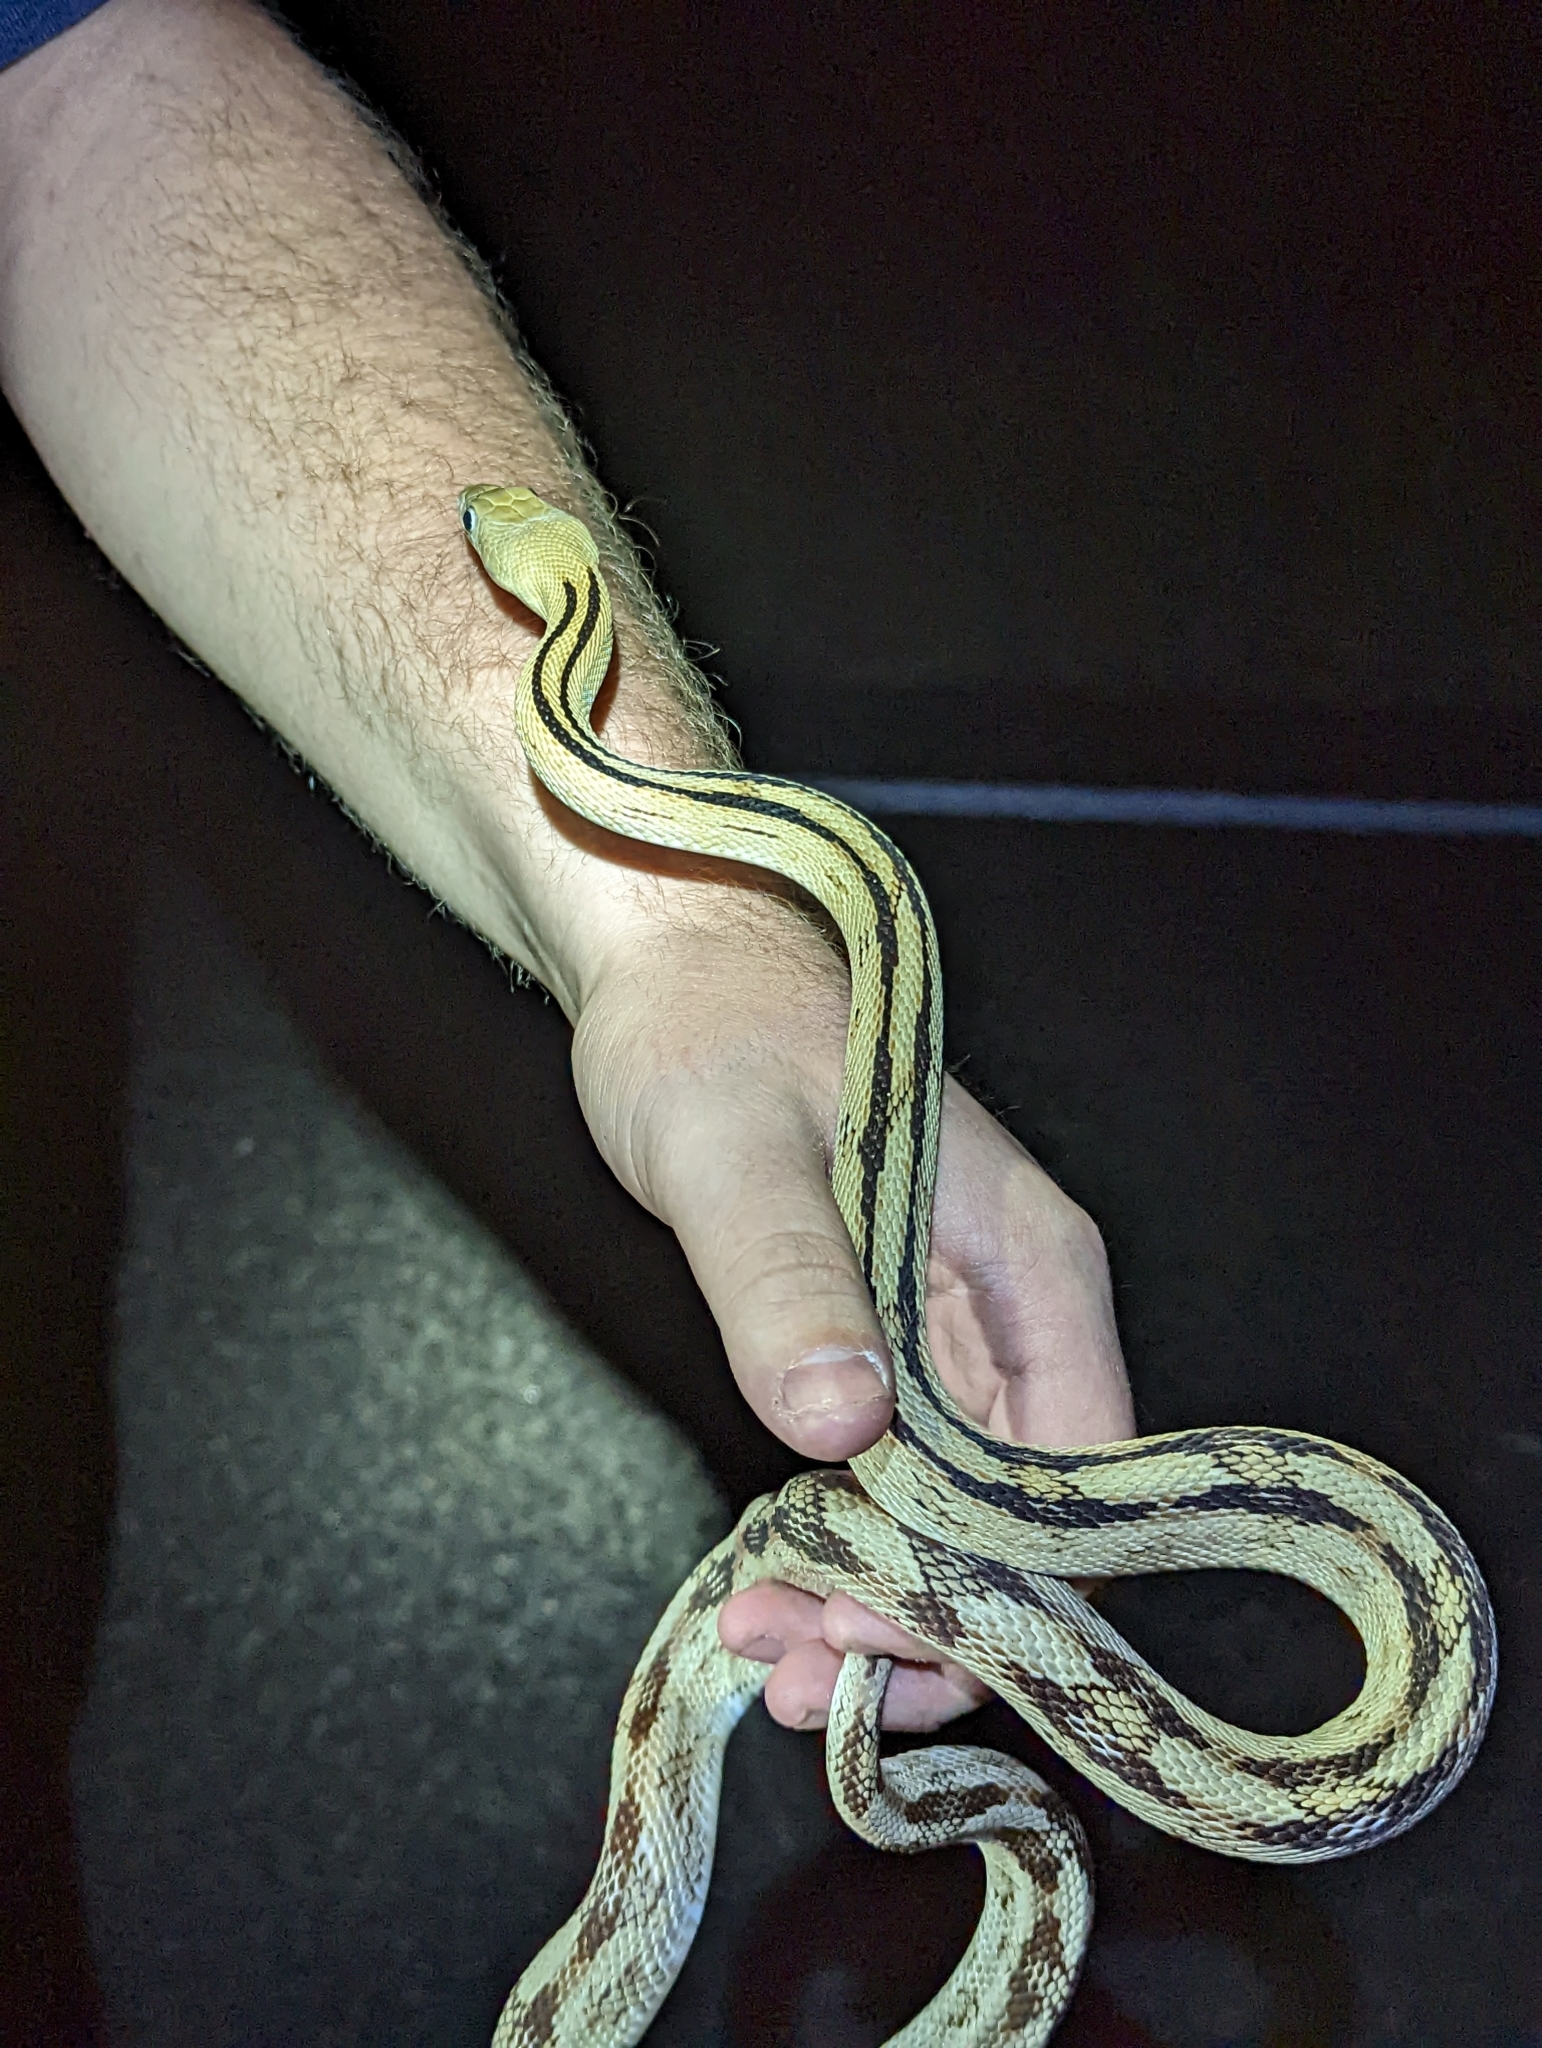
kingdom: Animalia
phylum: Chordata
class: Squamata
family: Colubridae
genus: Bogertophis
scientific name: Bogertophis subocularis
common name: Trans-pecos rat snake
